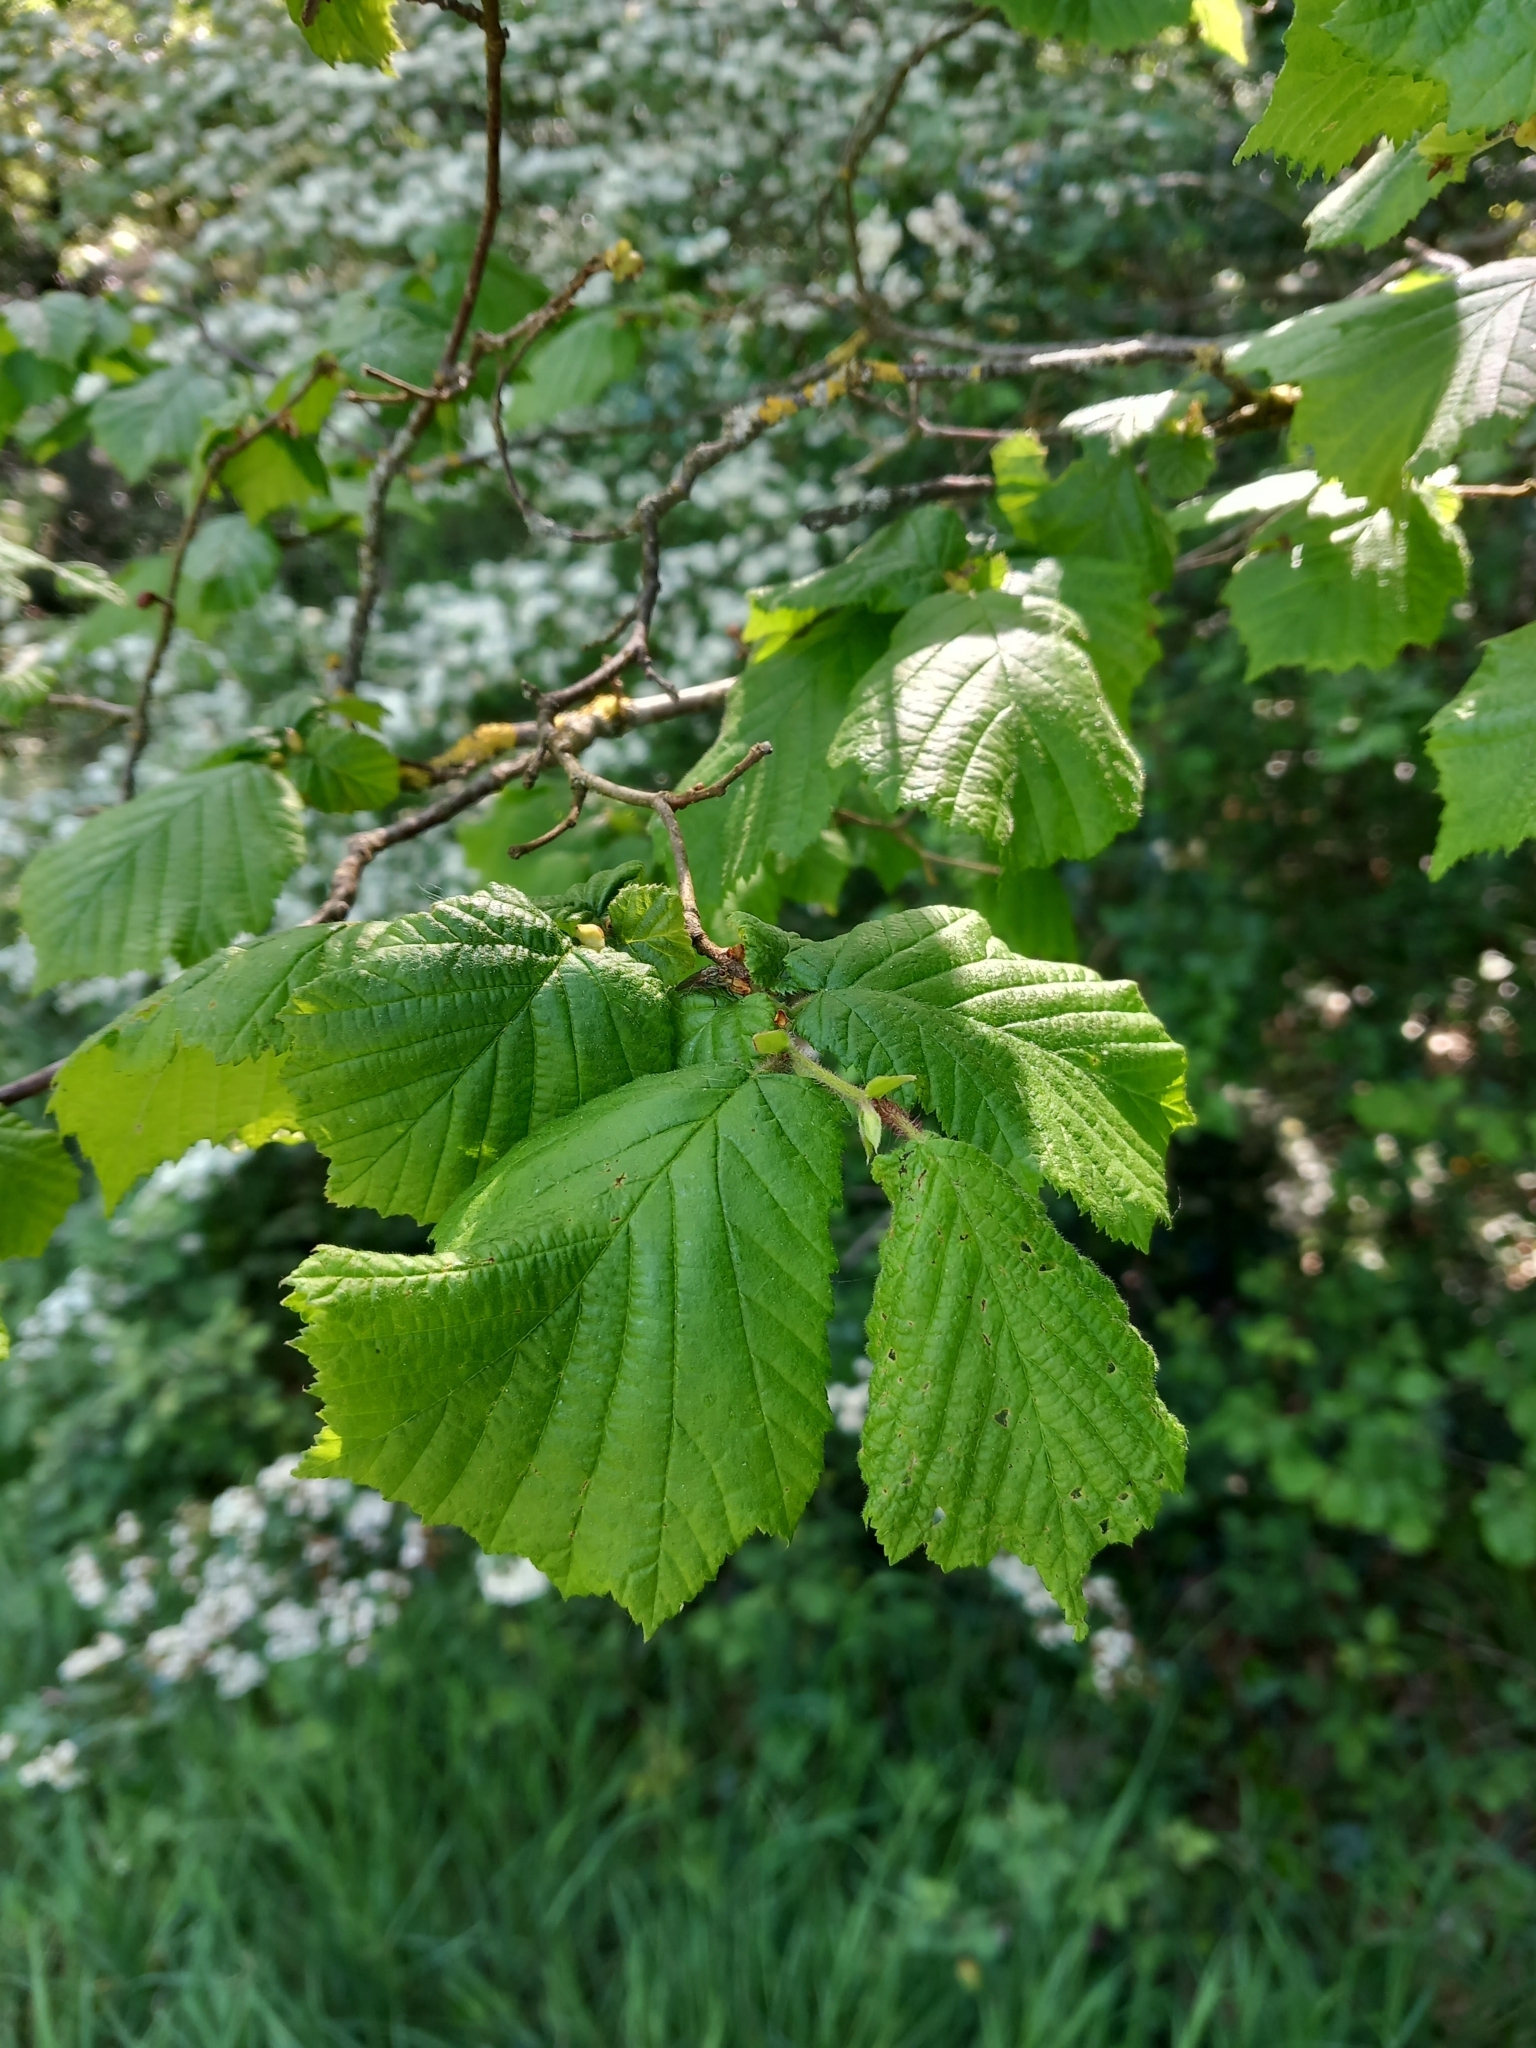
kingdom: Plantae
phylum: Tracheophyta
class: Magnoliopsida
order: Fagales
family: Betulaceae
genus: Corylus
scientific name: Corylus avellana
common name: European hazel
